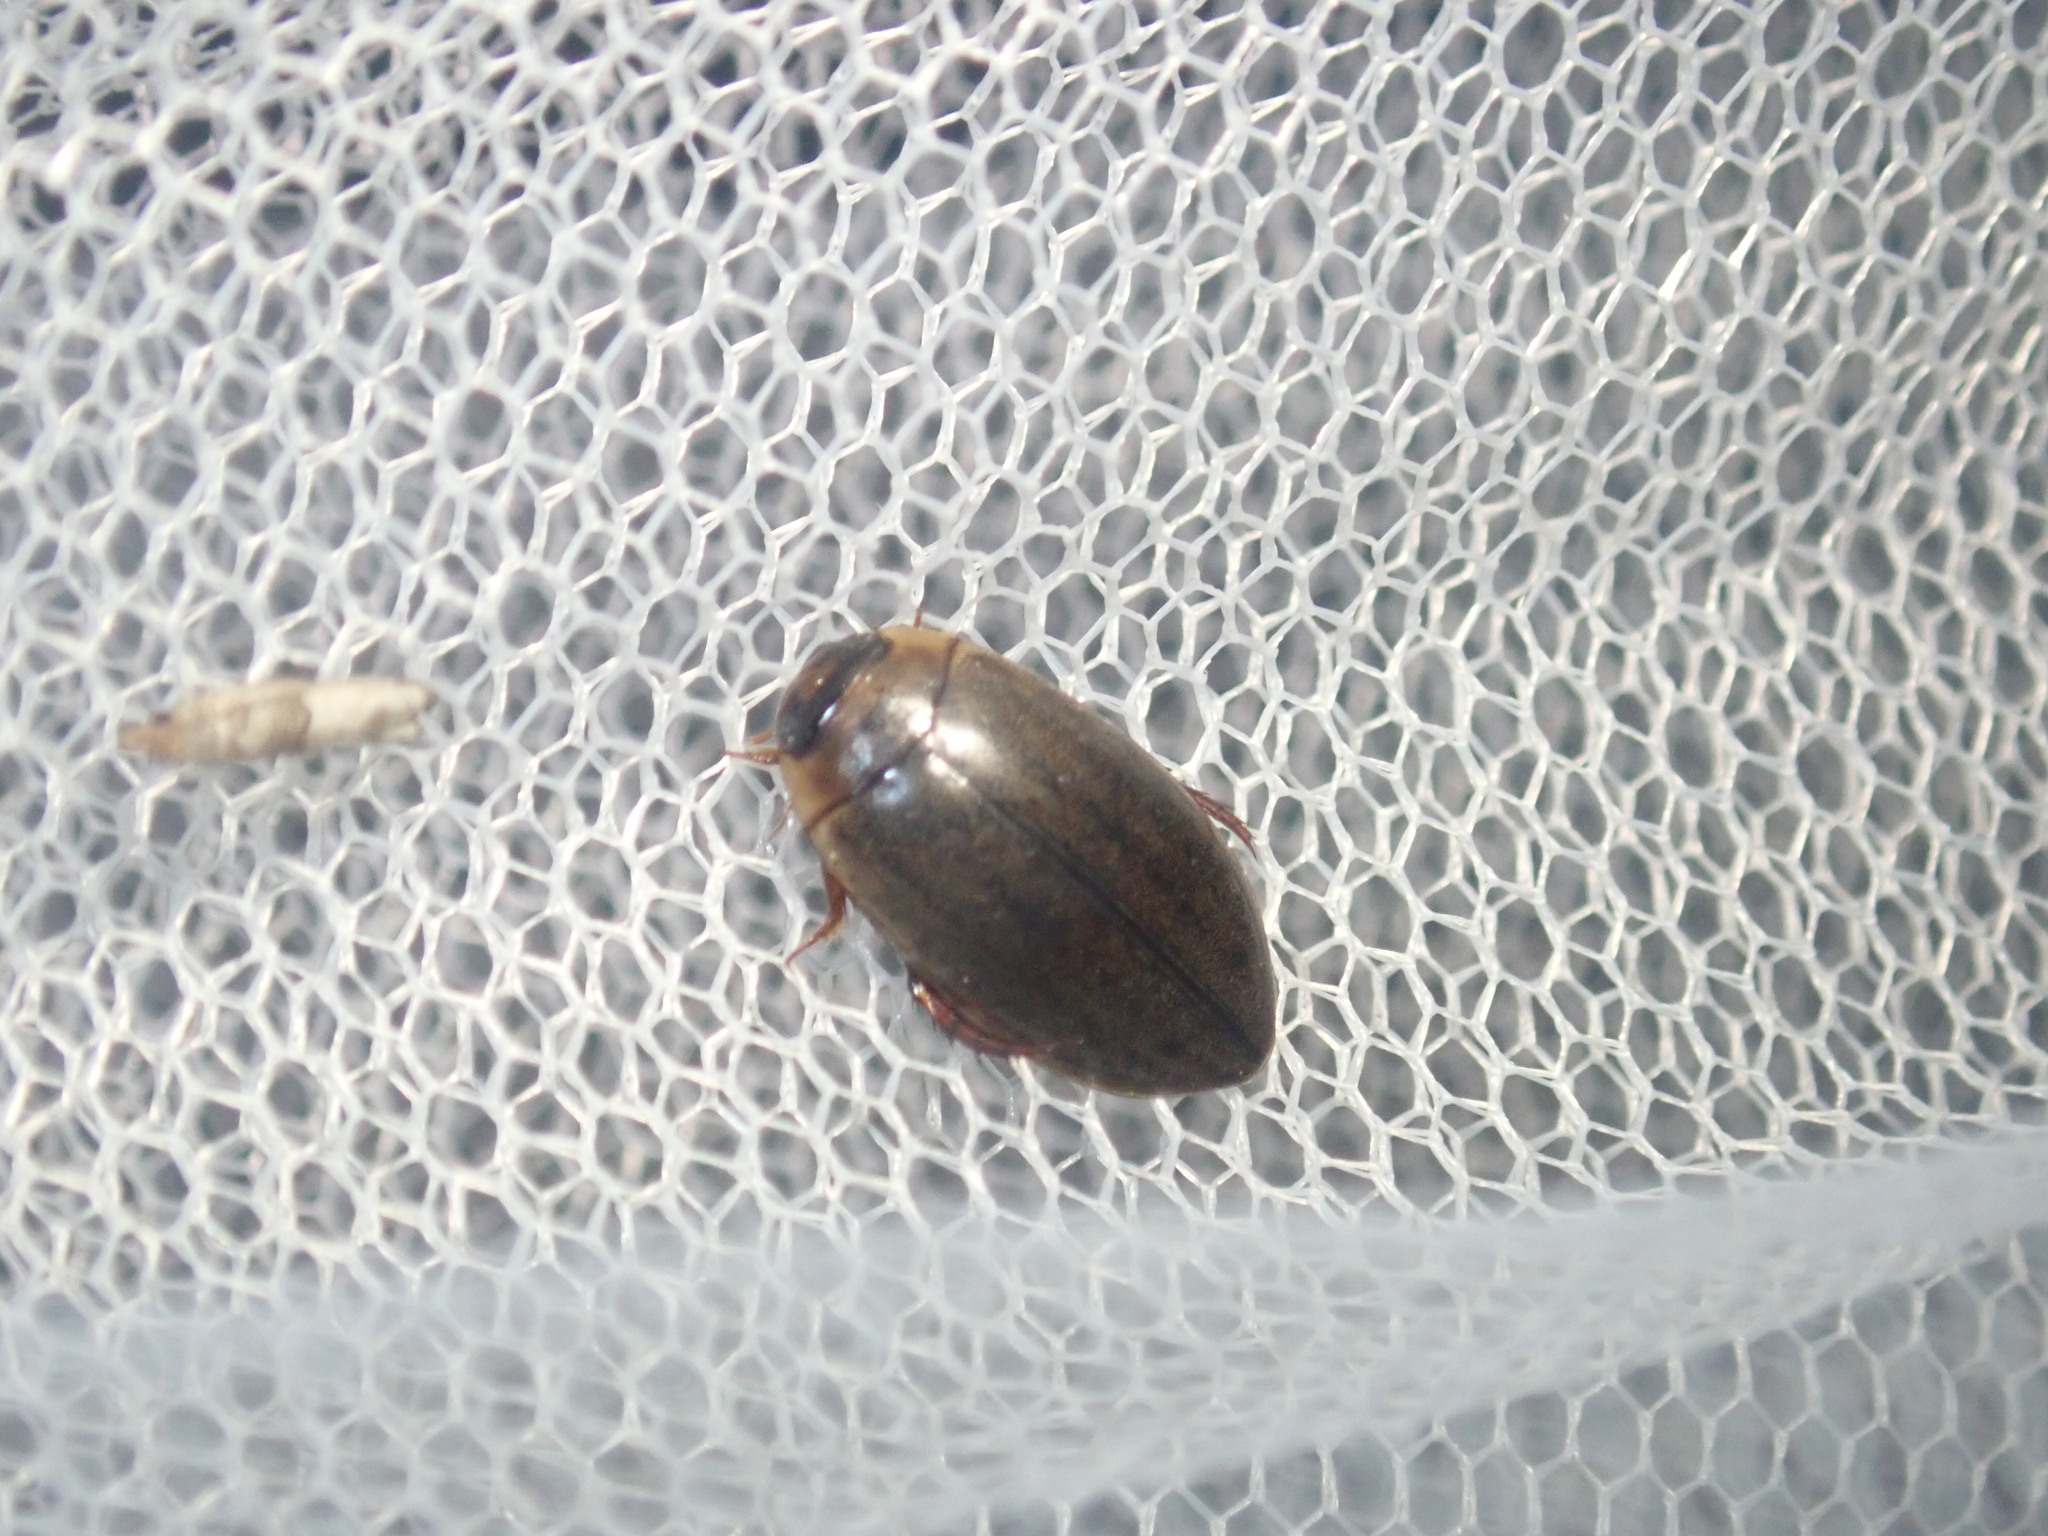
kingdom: Animalia
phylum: Arthropoda
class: Insecta
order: Coleoptera
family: Dytiscidae
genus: Rhantus
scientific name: Rhantus suturalis
